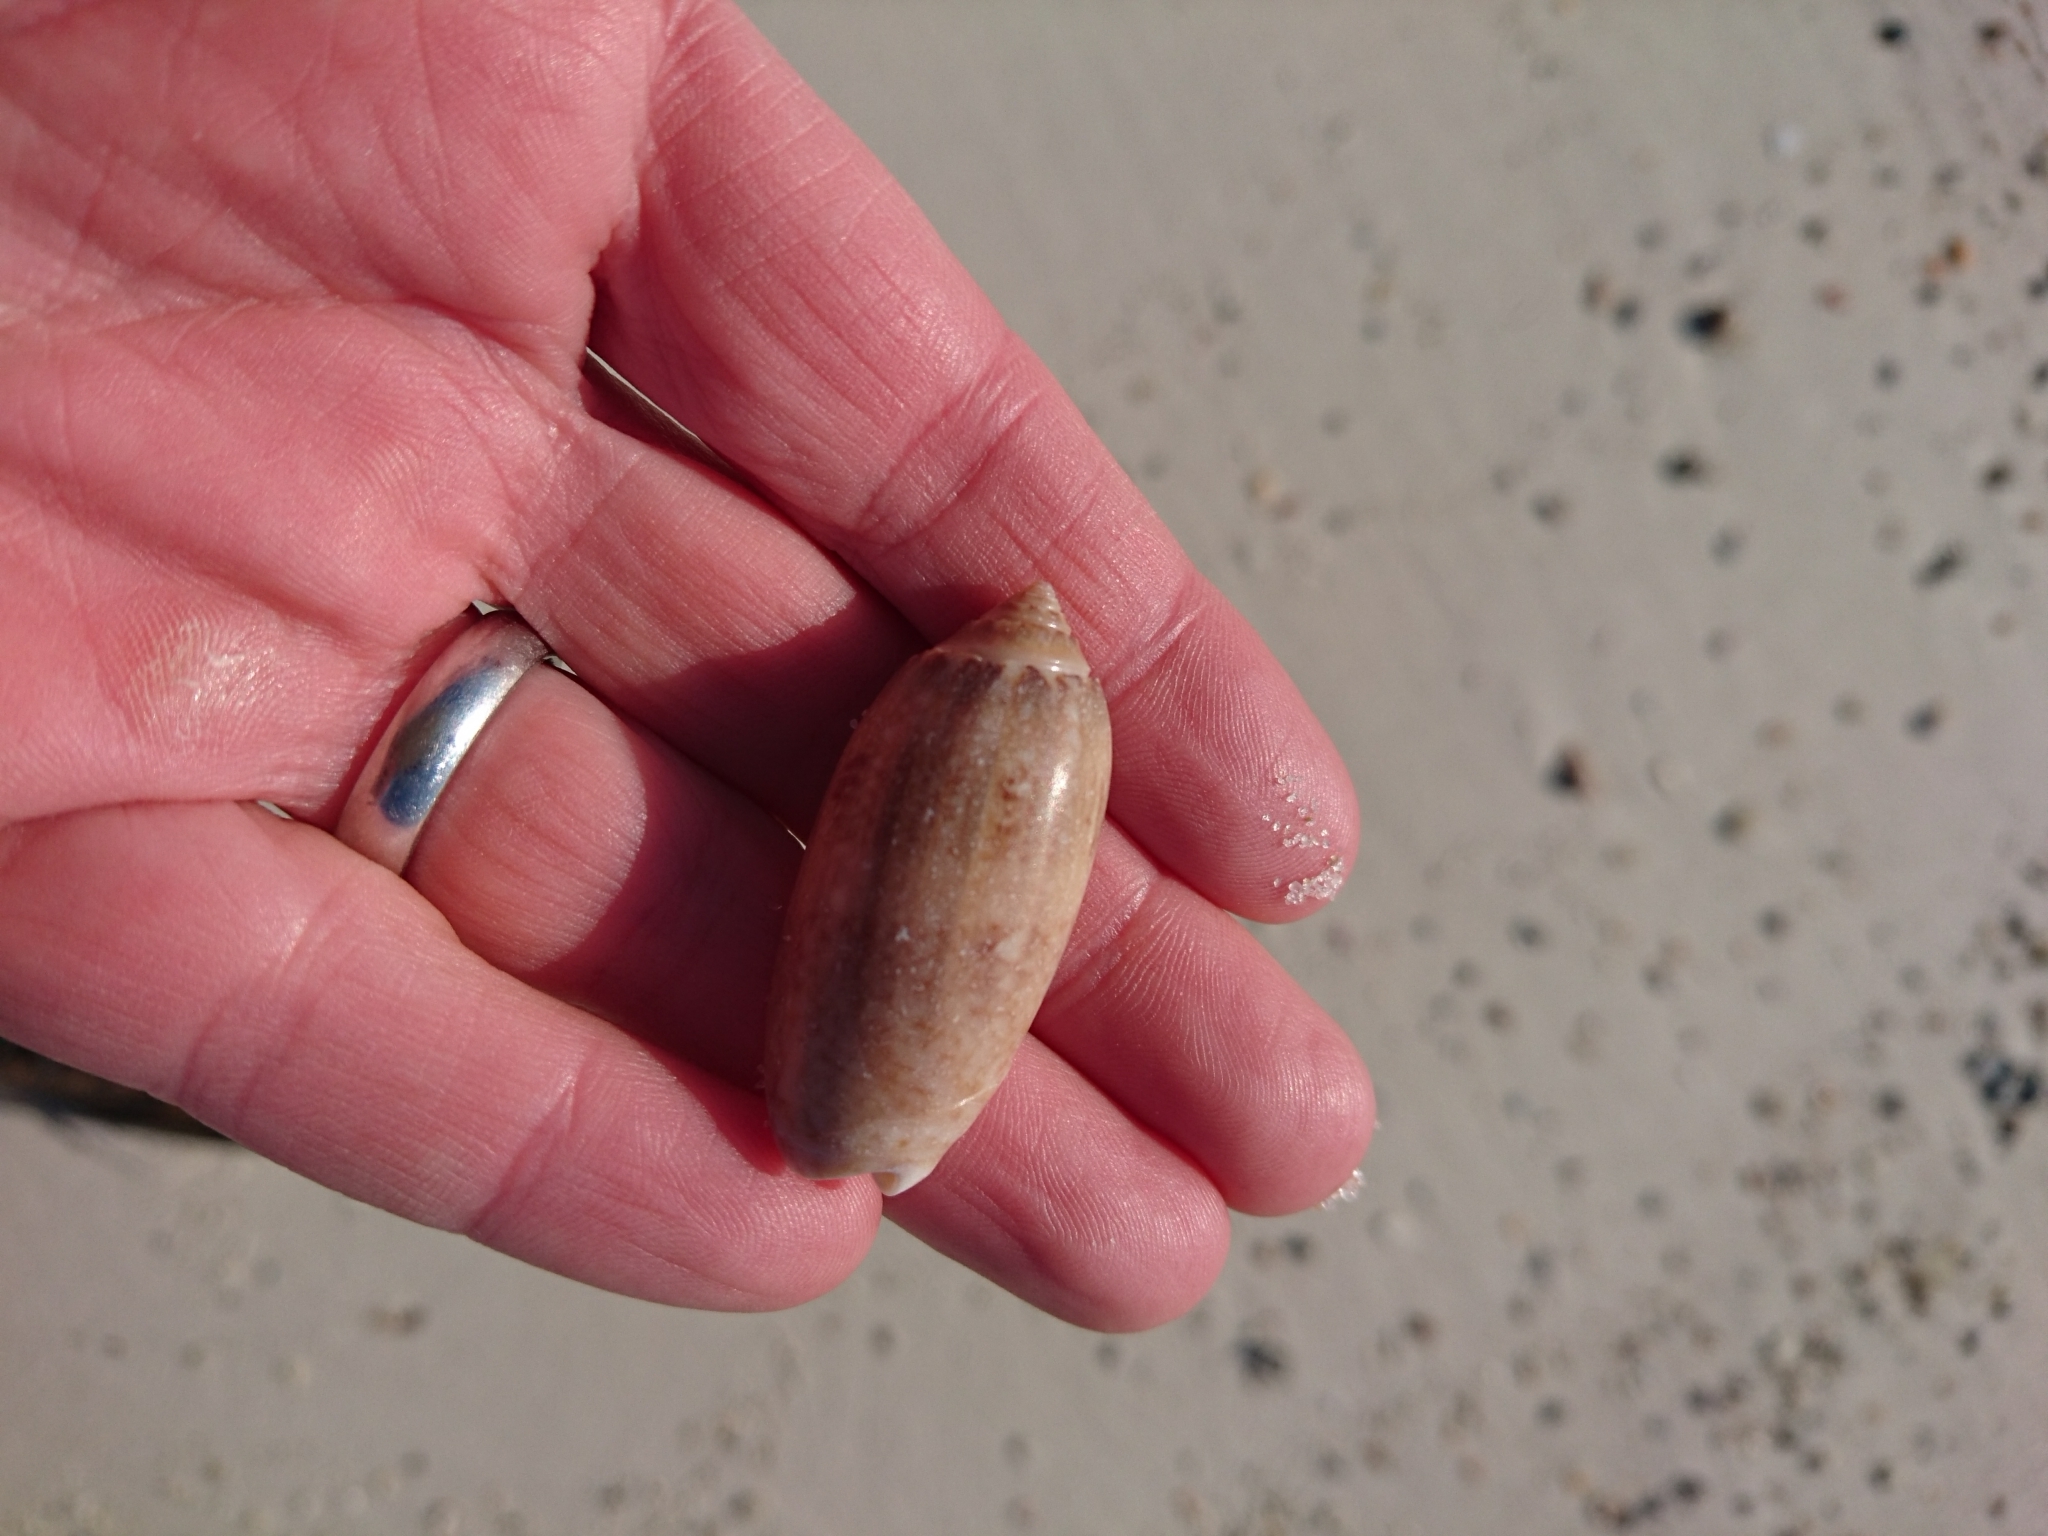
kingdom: Animalia
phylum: Mollusca
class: Gastropoda
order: Neogastropoda
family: Olividae
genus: Oliva
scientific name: Oliva sayana
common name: Lettered olive
